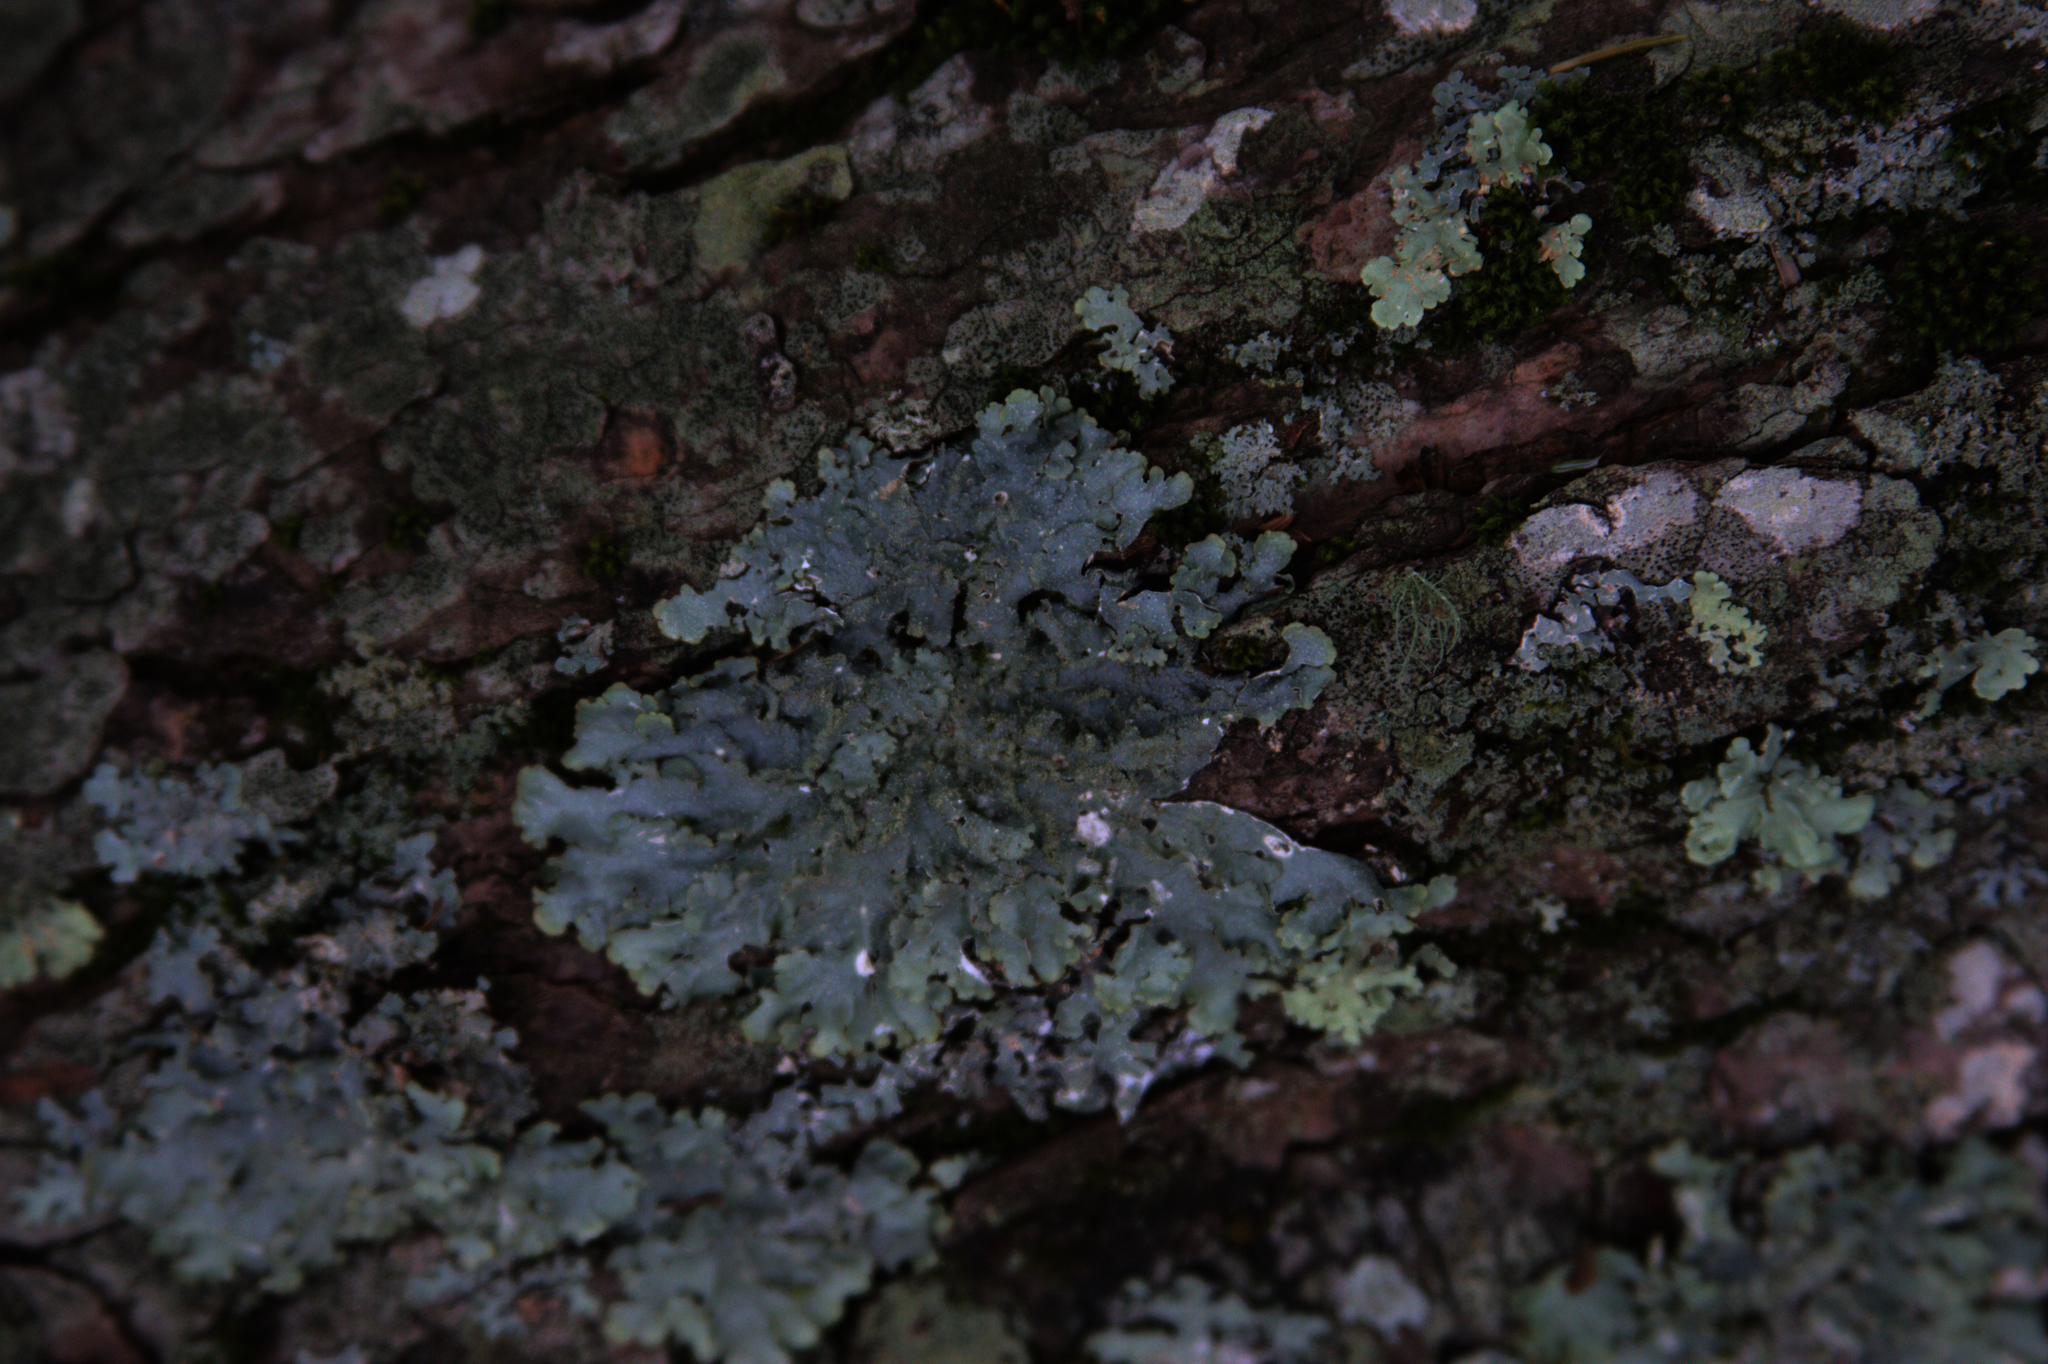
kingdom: Plantae
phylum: Bryophyta
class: Bryopsida
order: Orthotrichales
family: Orthotrichaceae
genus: Ulota
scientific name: Ulota crispa
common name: Crisped pincushion moss
